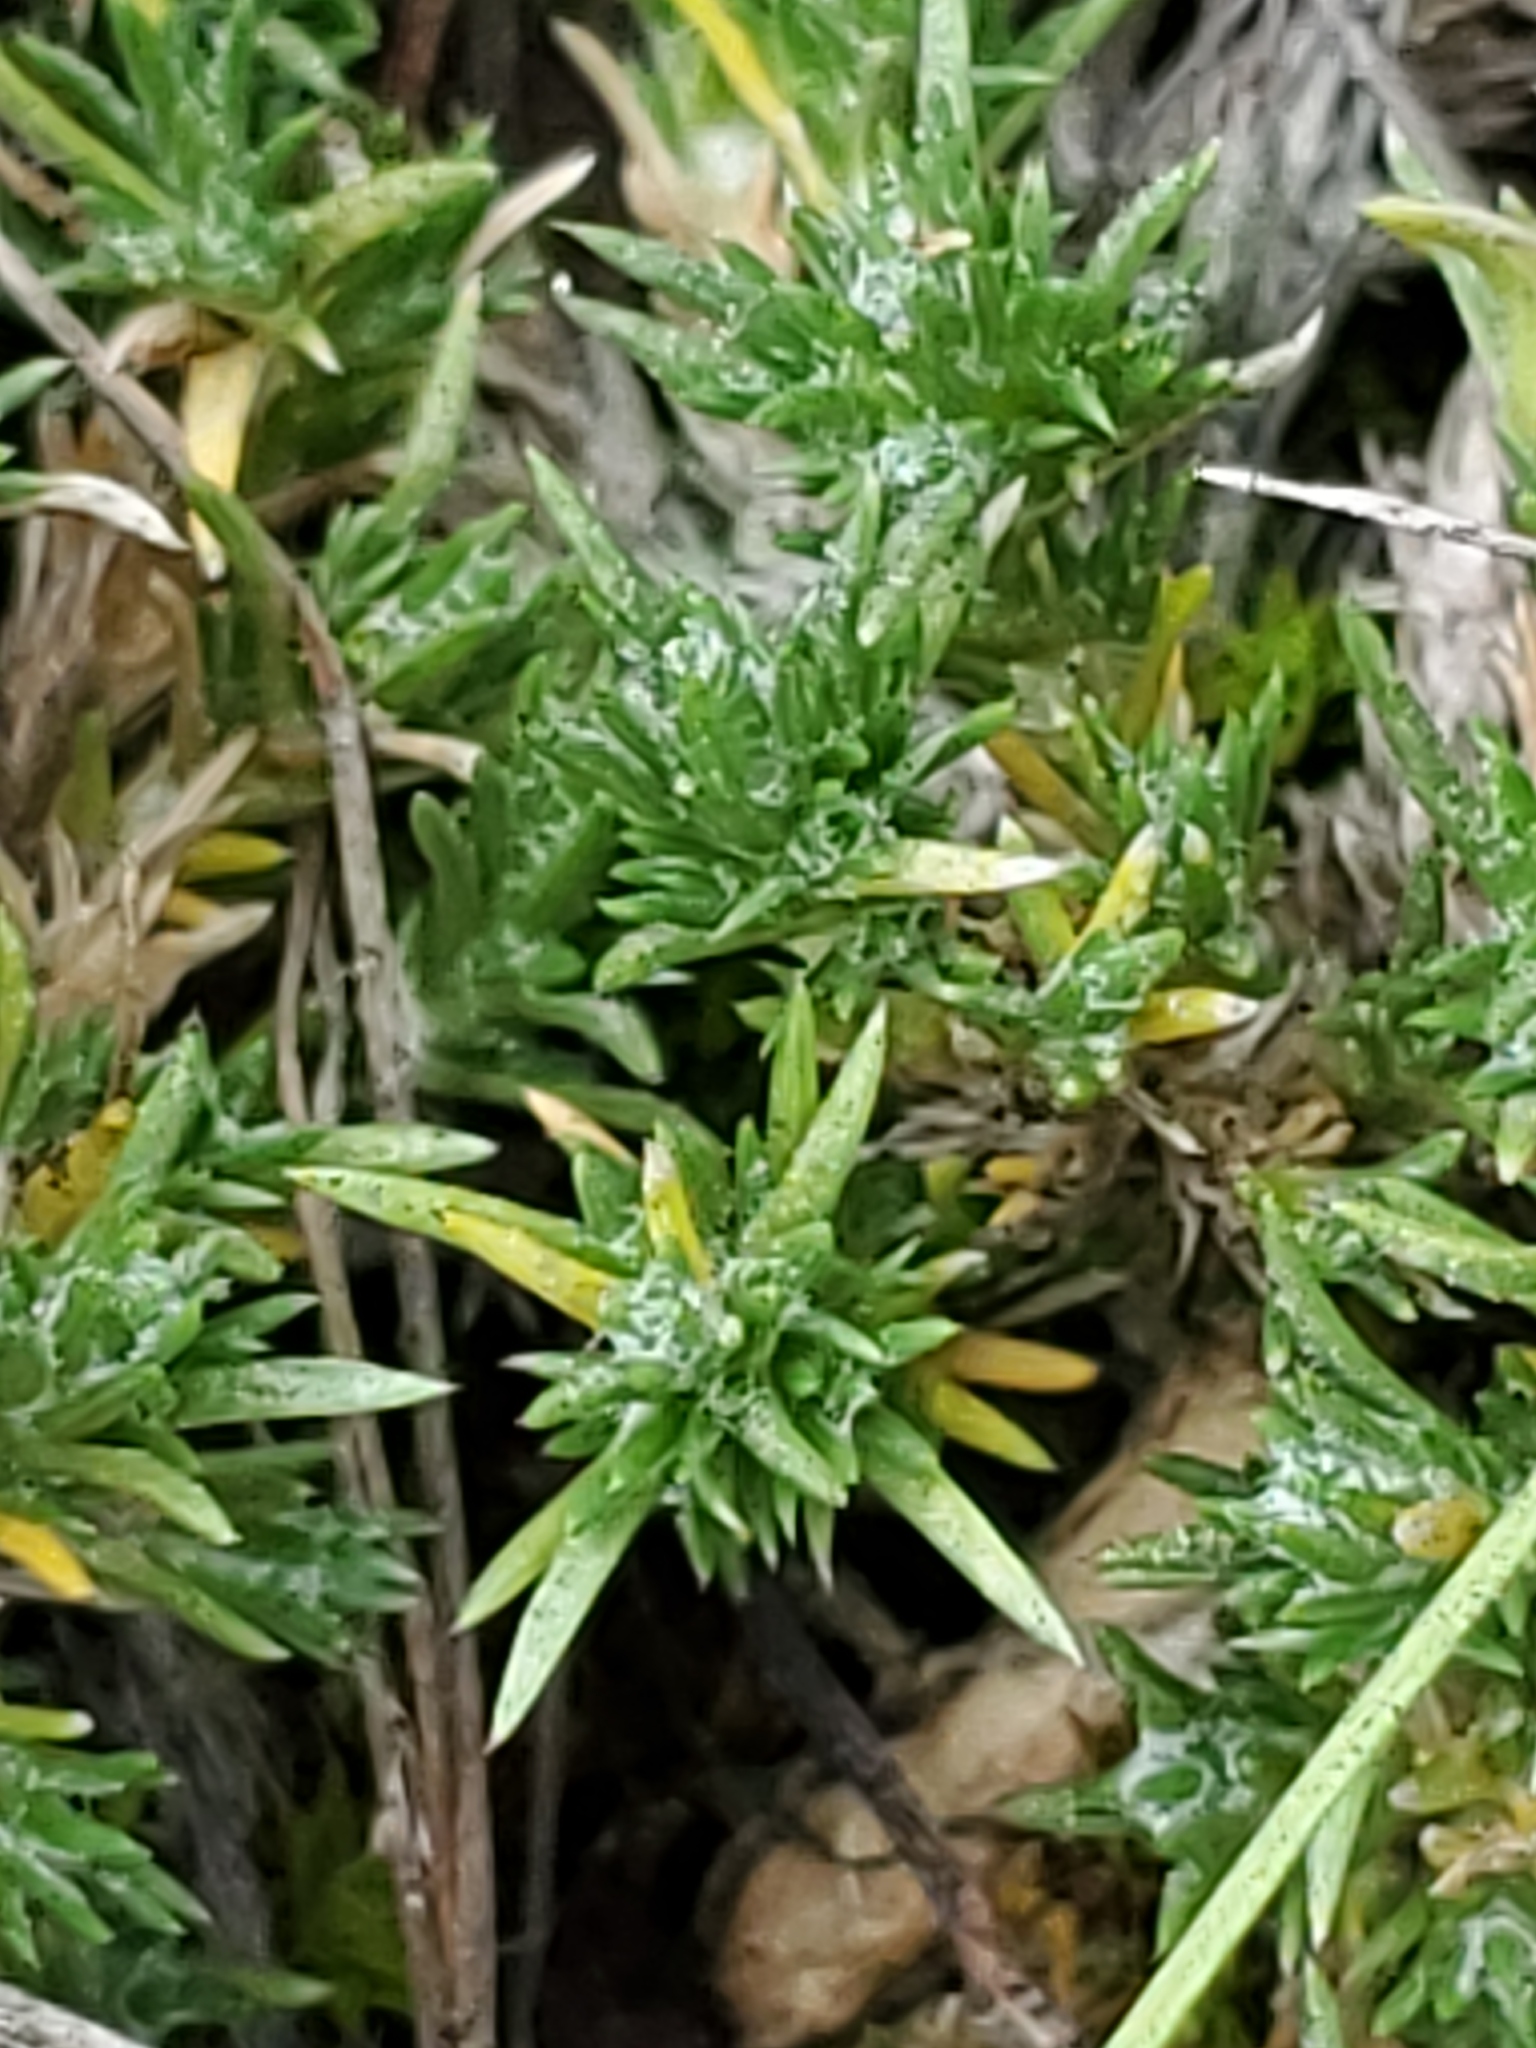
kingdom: Plantae
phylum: Tracheophyta
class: Magnoliopsida
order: Ericales
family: Polemoniaceae
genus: Phlox
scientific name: Phlox hoodii
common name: Moss phlox
